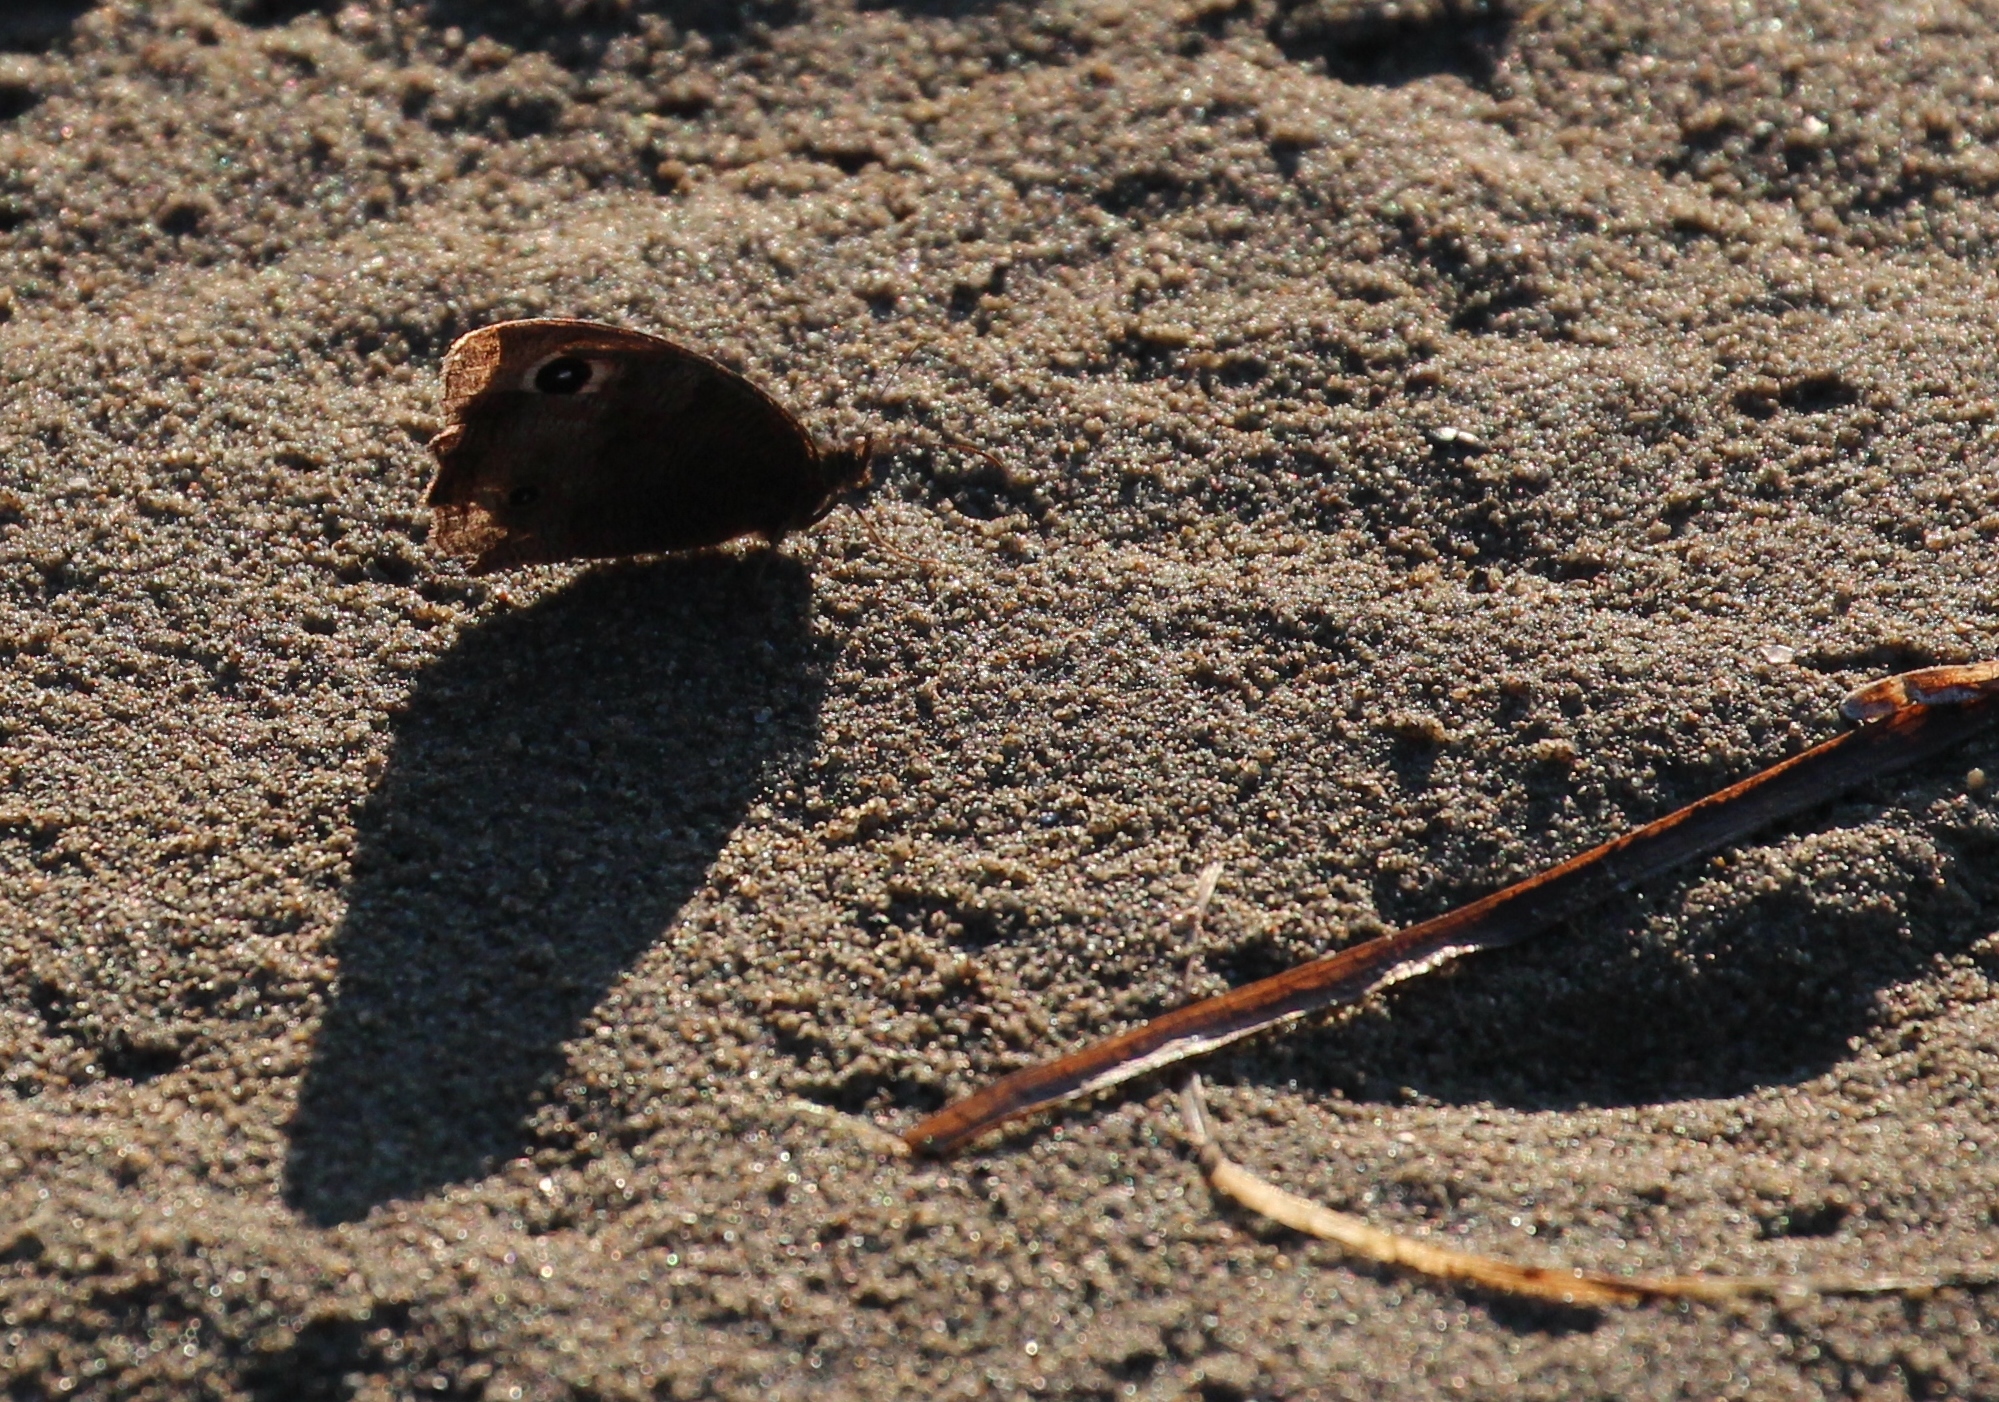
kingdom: Animalia
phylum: Arthropoda
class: Insecta
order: Lepidoptera
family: Nymphalidae
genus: Cercyonis
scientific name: Cercyonis pegala
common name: Common wood-nymph
